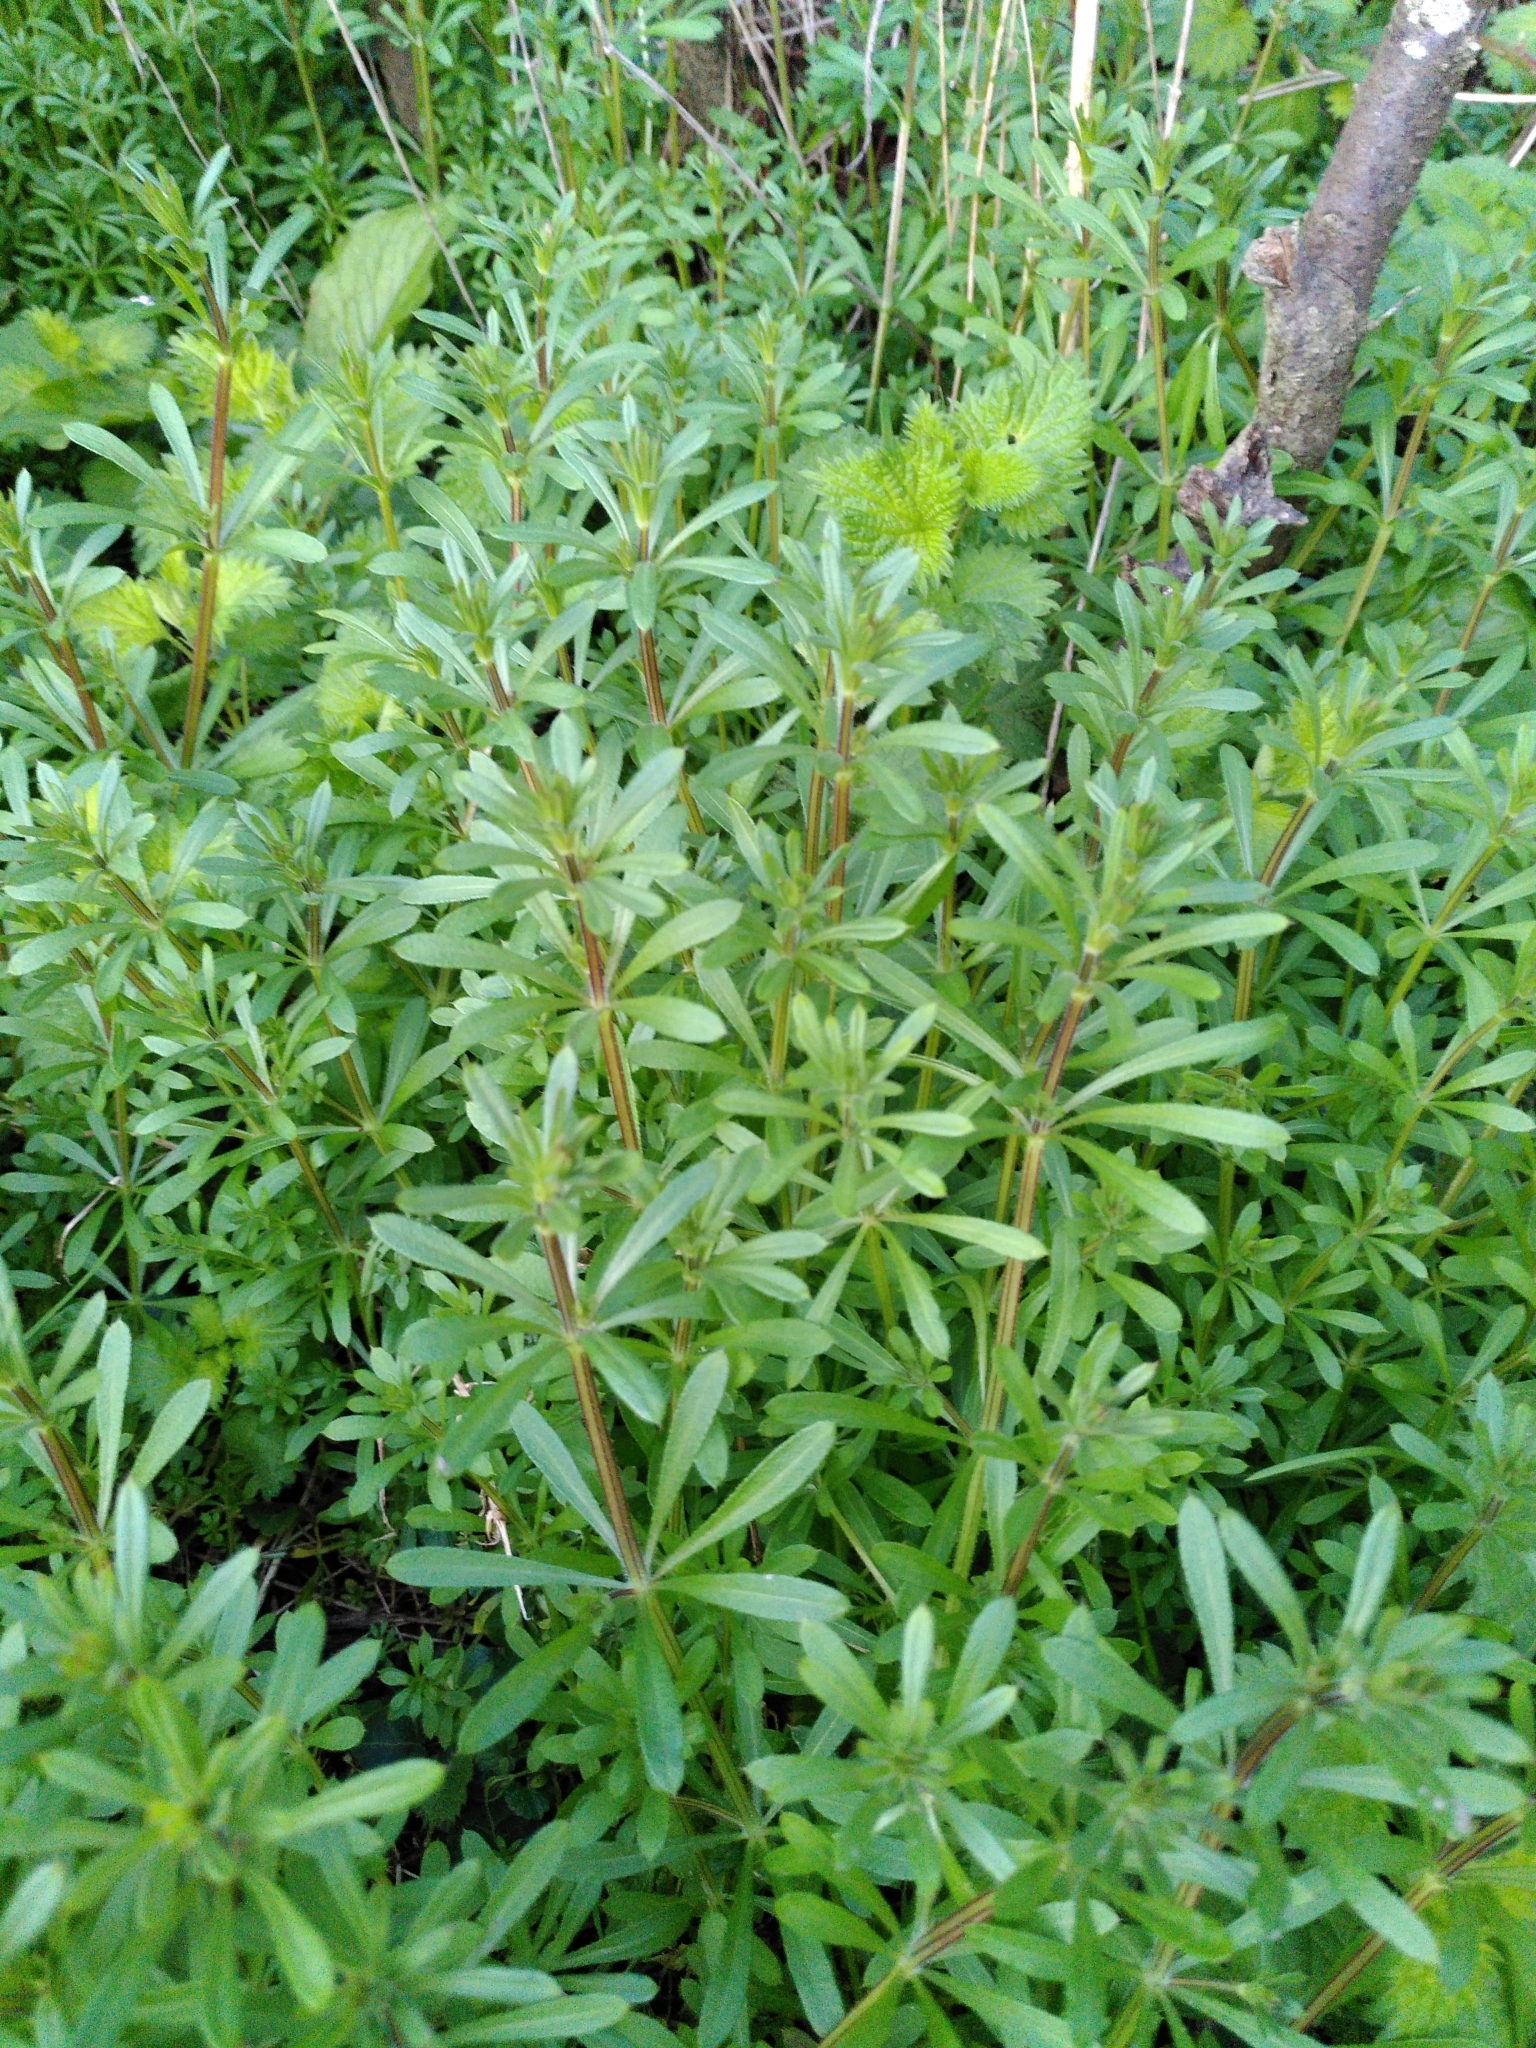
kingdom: Plantae
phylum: Tracheophyta
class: Magnoliopsida
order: Gentianales
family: Rubiaceae
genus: Galium
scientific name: Galium aparine
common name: Cleavers
